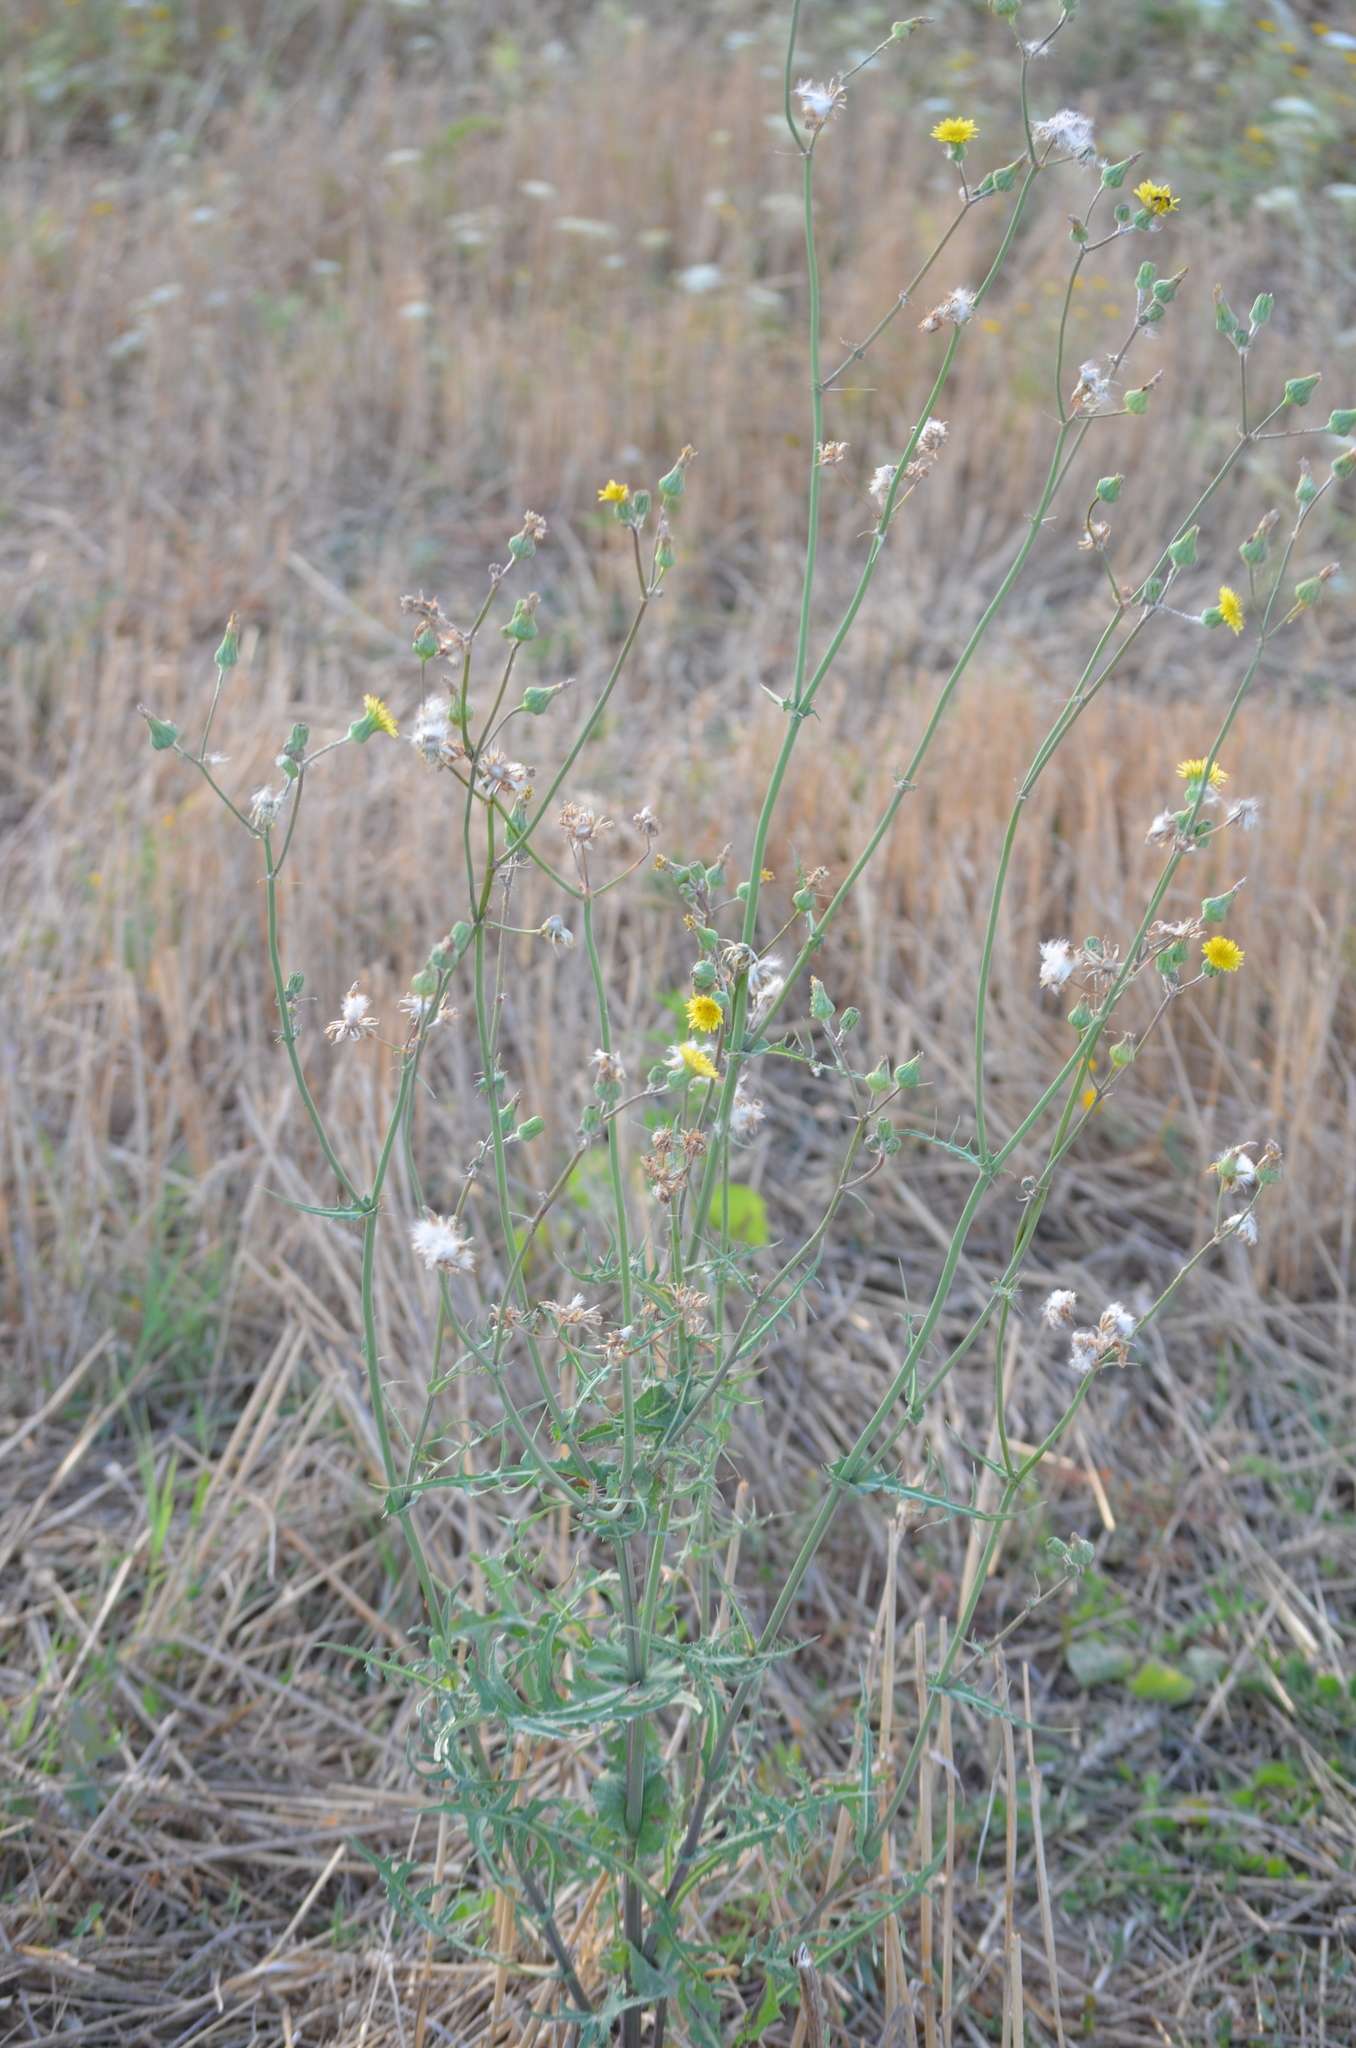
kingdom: Plantae
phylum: Tracheophyta
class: Magnoliopsida
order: Asterales
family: Asteraceae
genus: Sonchus
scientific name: Sonchus oleraceus
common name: Common sowthistle
